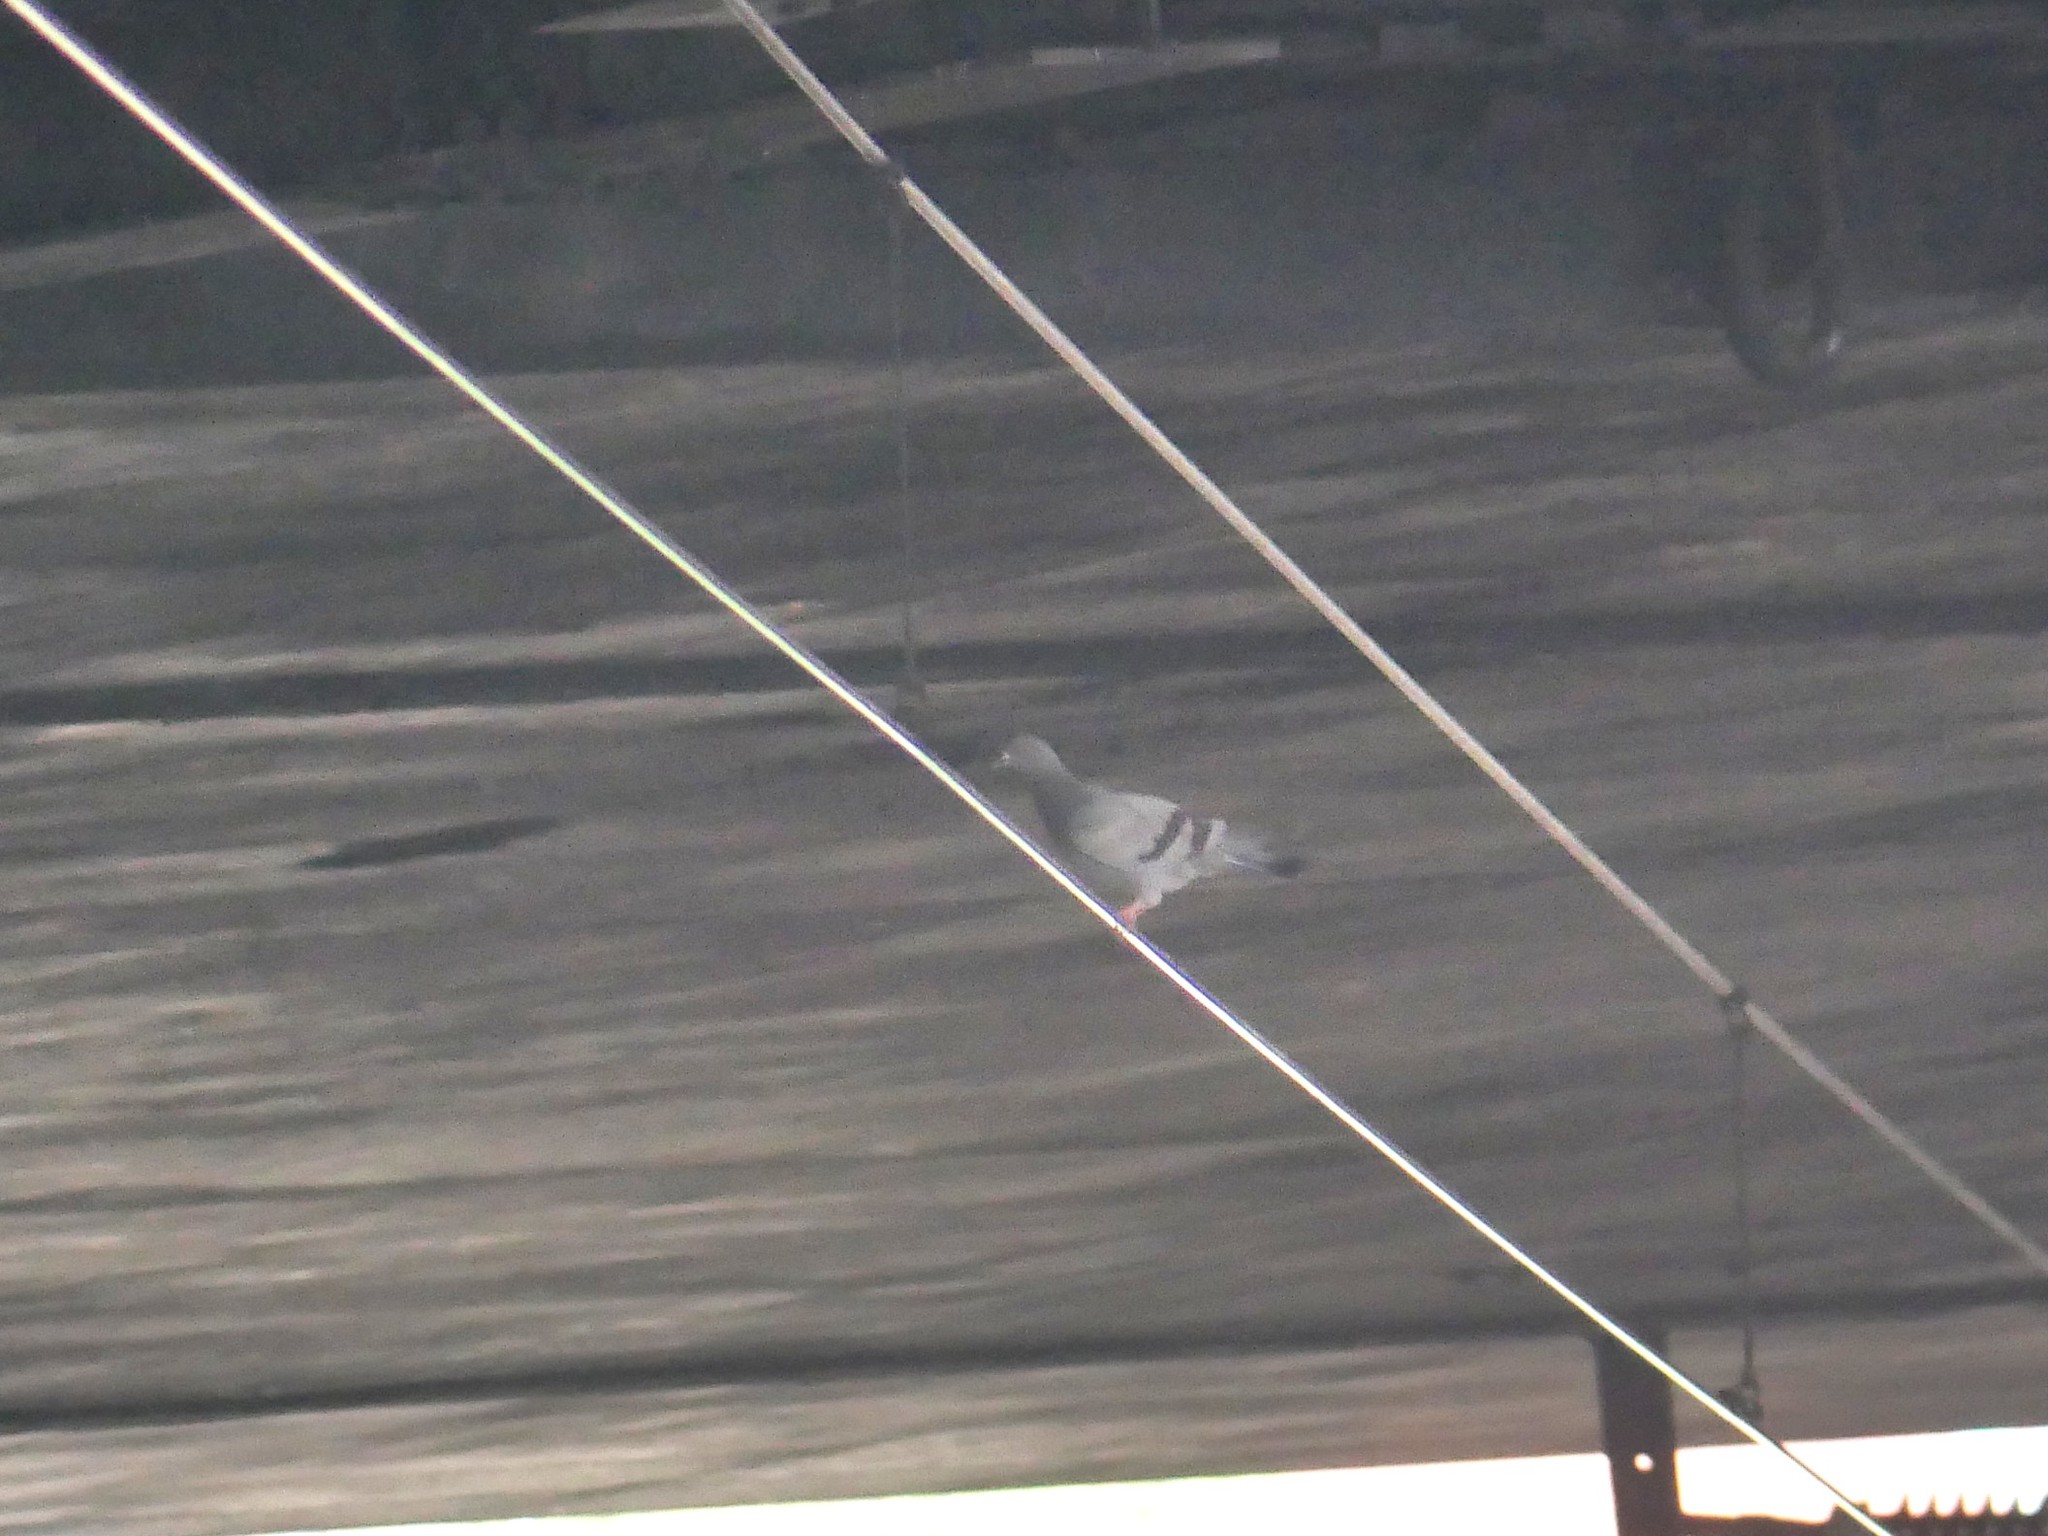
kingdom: Animalia
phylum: Chordata
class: Aves
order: Columbiformes
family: Columbidae
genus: Columba
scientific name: Columba livia
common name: Rock pigeon
